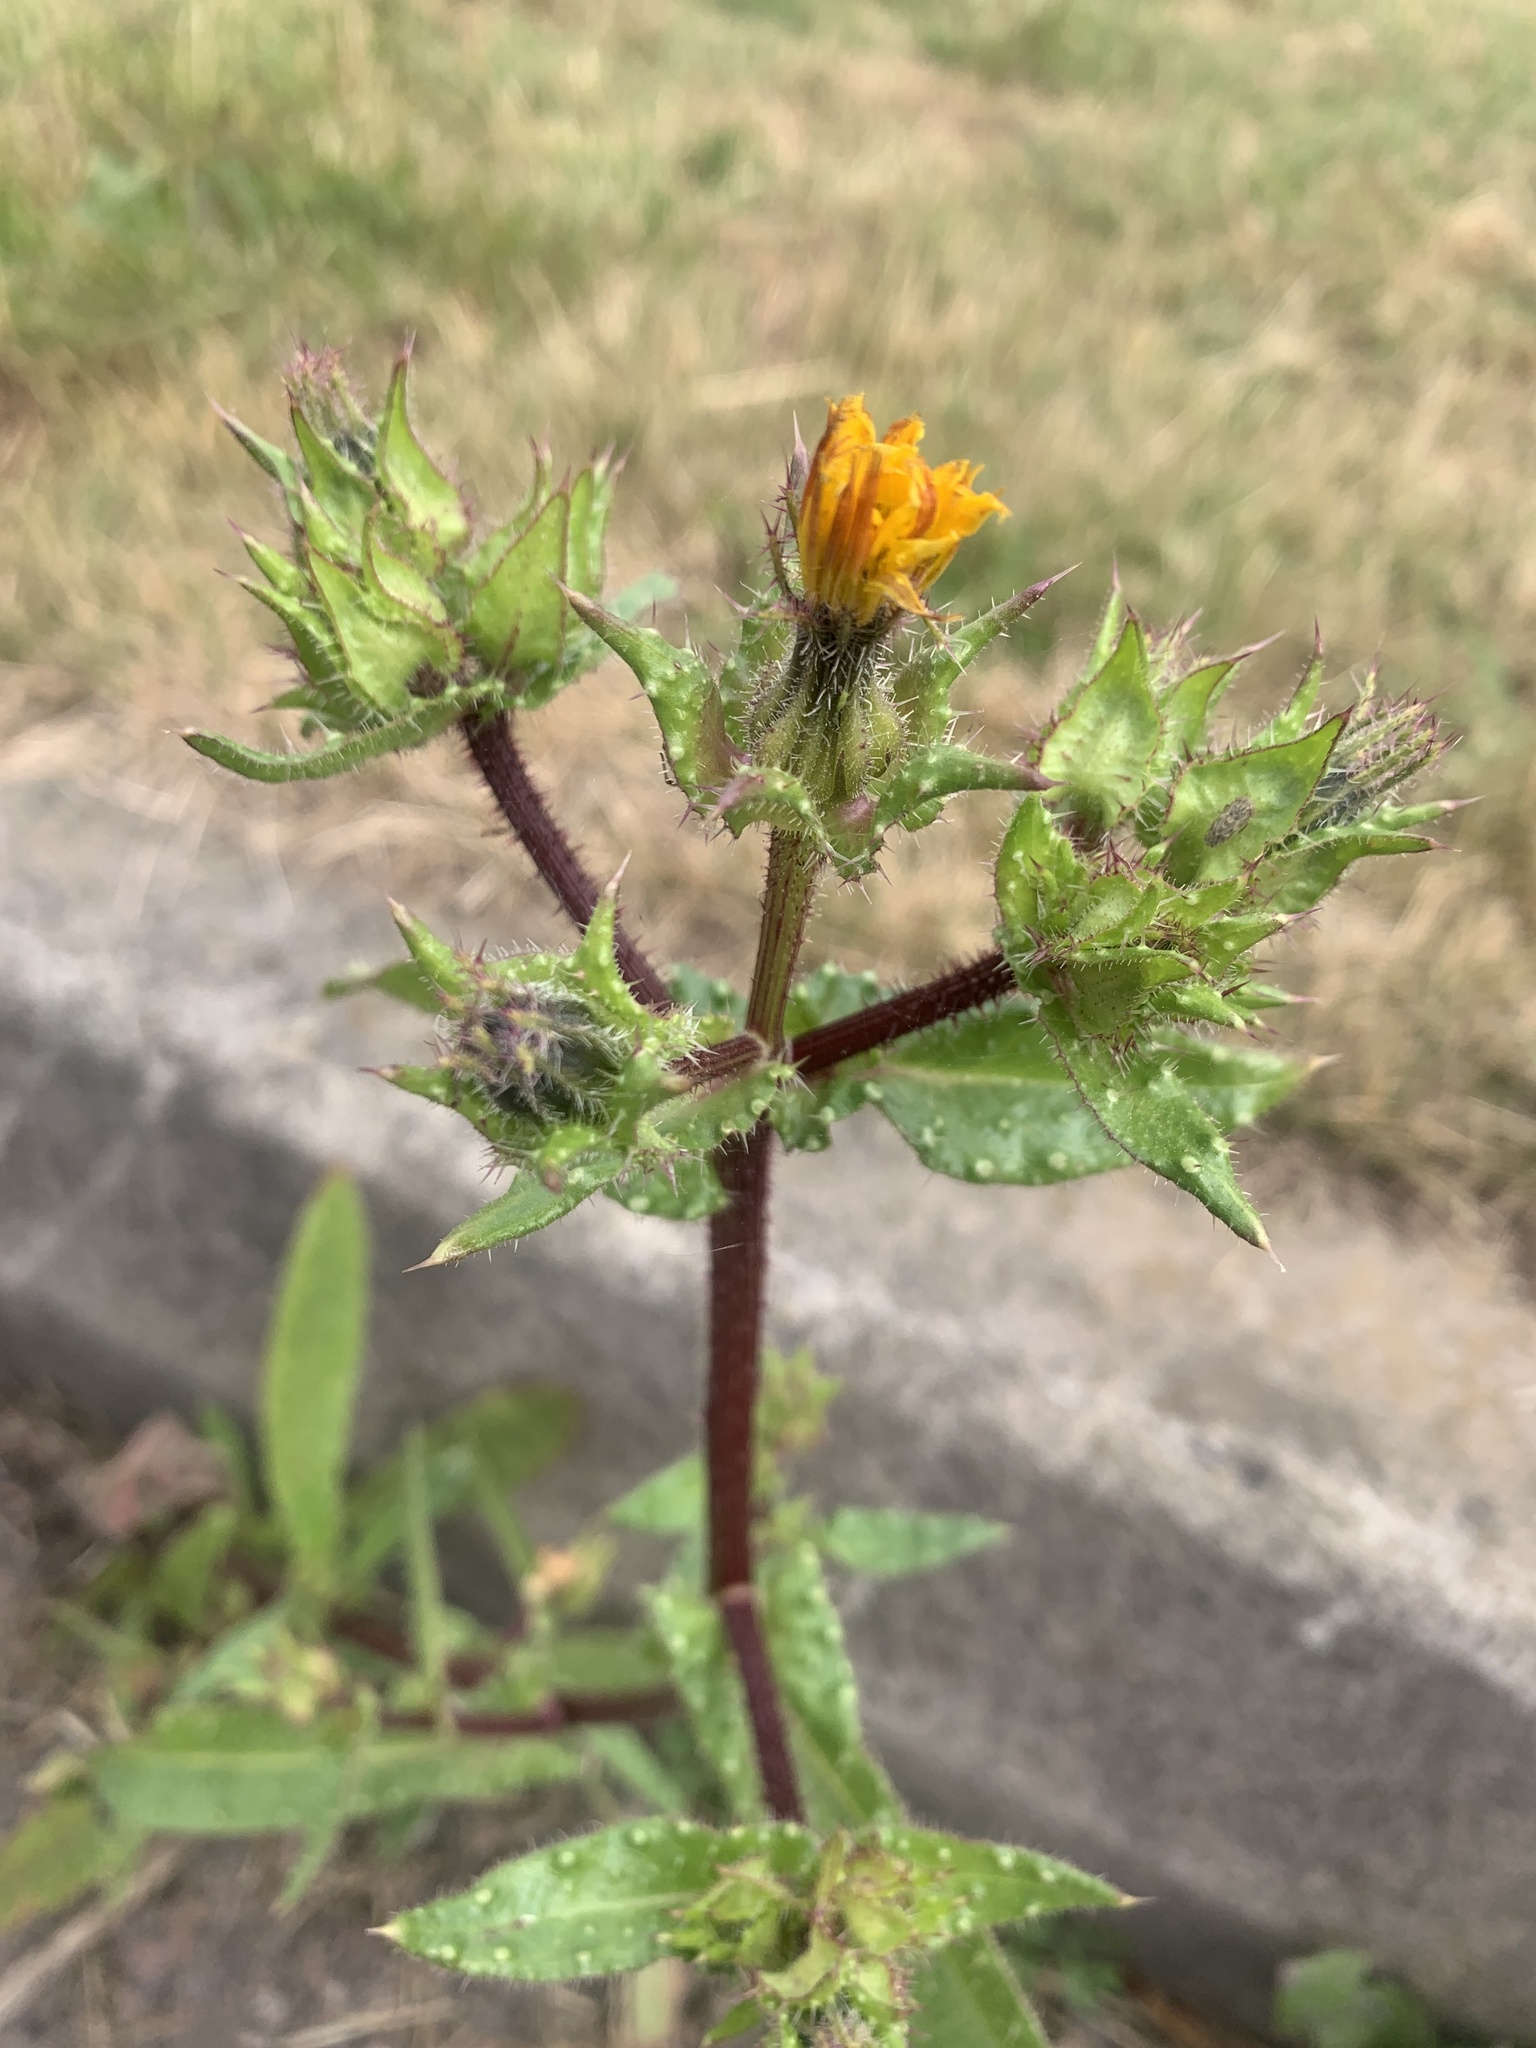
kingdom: Plantae
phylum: Tracheophyta
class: Magnoliopsida
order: Asterales
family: Asteraceae
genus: Helminthotheca
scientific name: Helminthotheca echioides
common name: Ox-tongue
